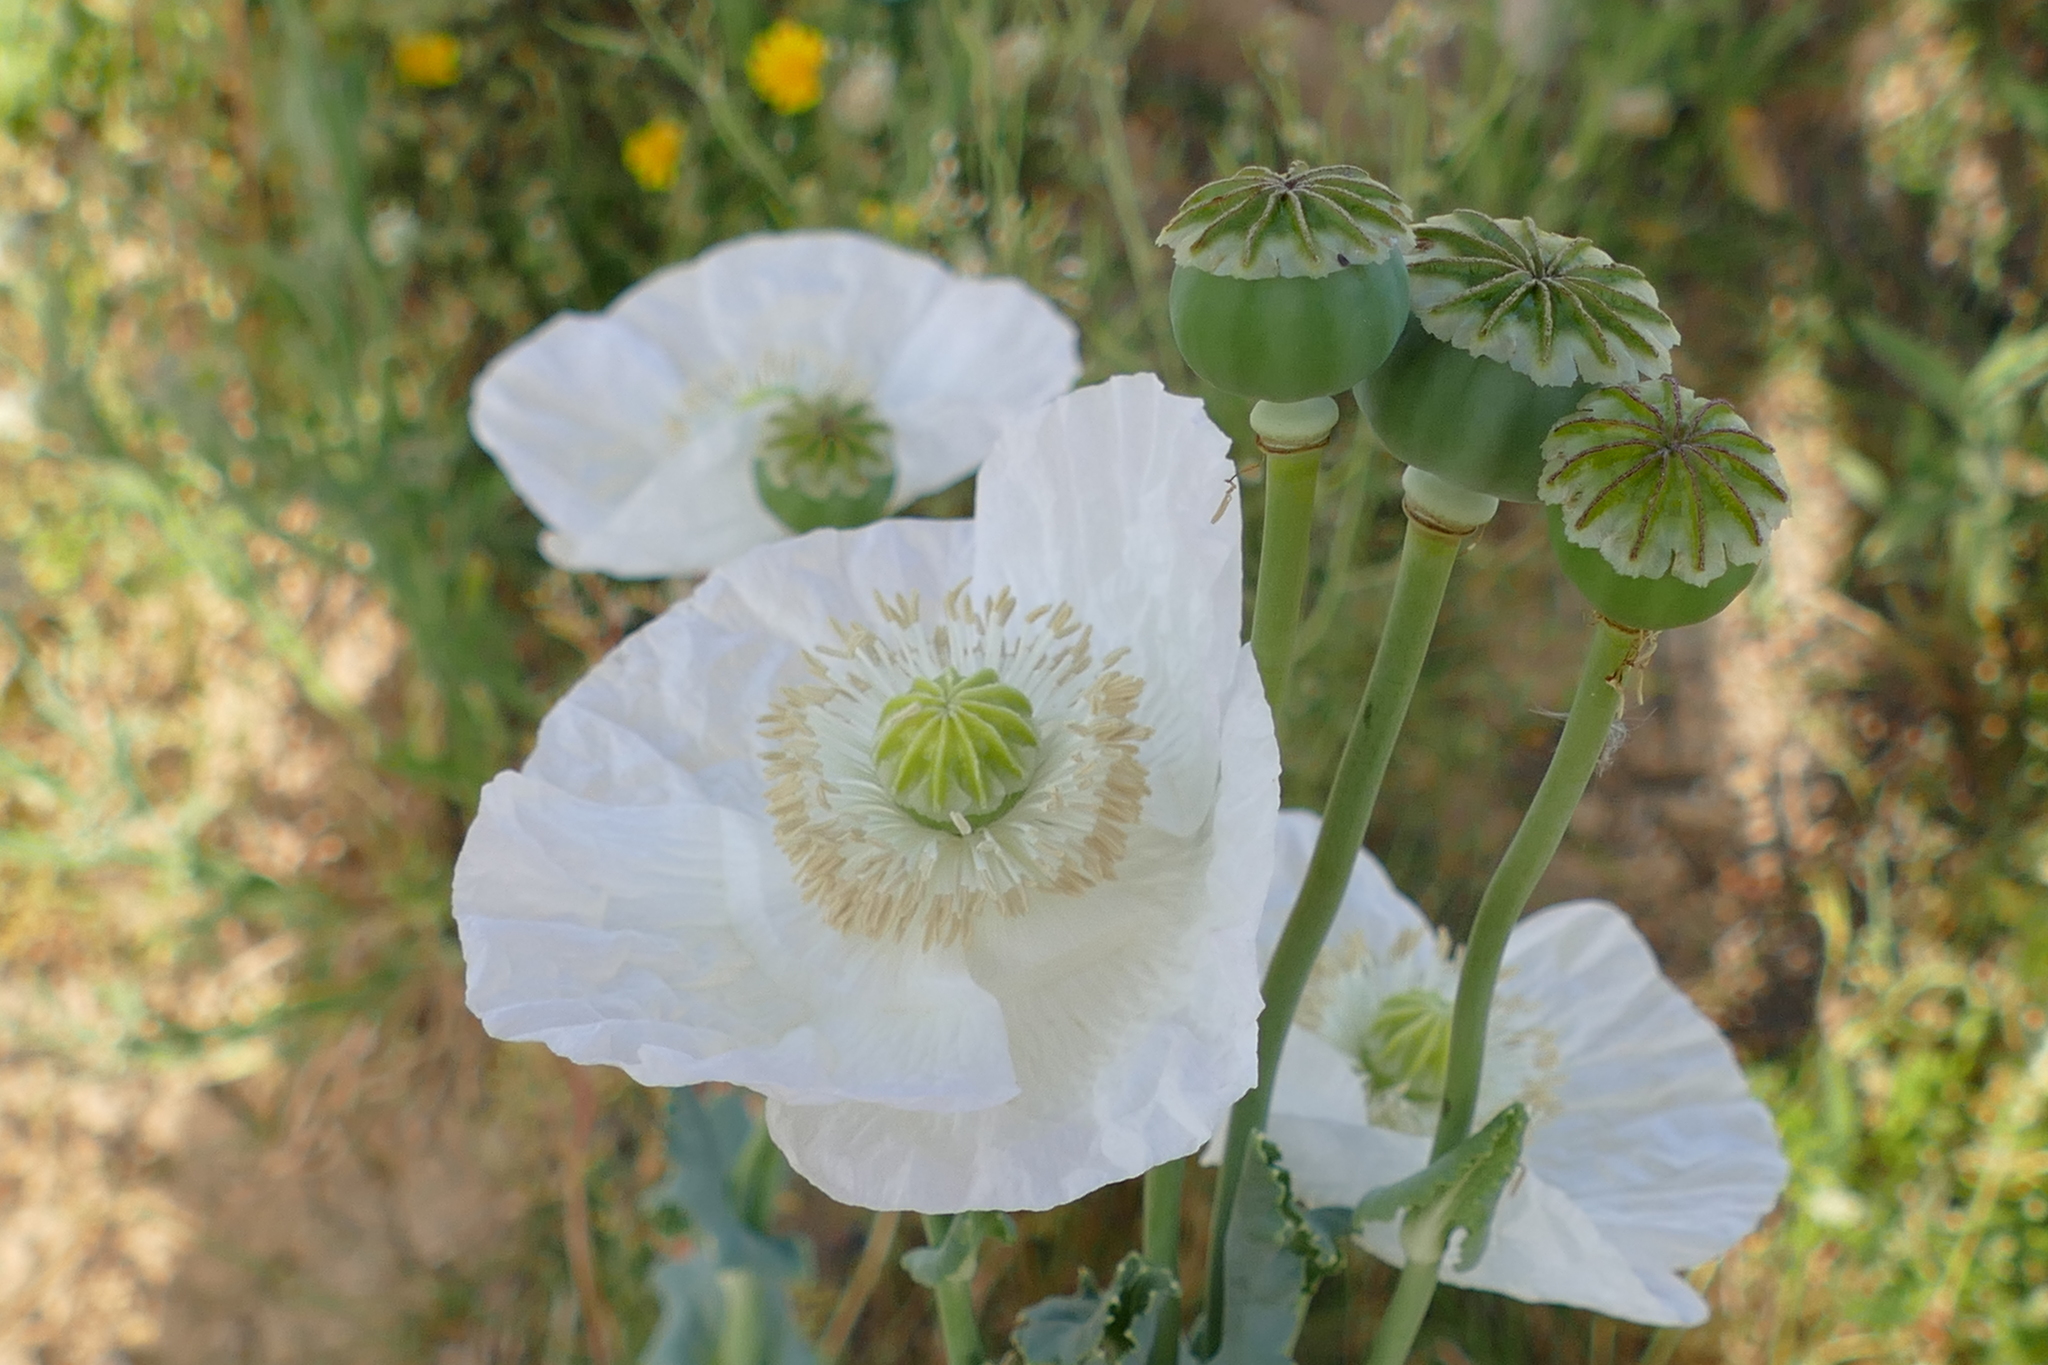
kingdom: Plantae
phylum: Tracheophyta
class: Magnoliopsida
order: Ranunculales
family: Papaveraceae
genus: Papaver
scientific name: Papaver somniferum
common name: Opium poppy
